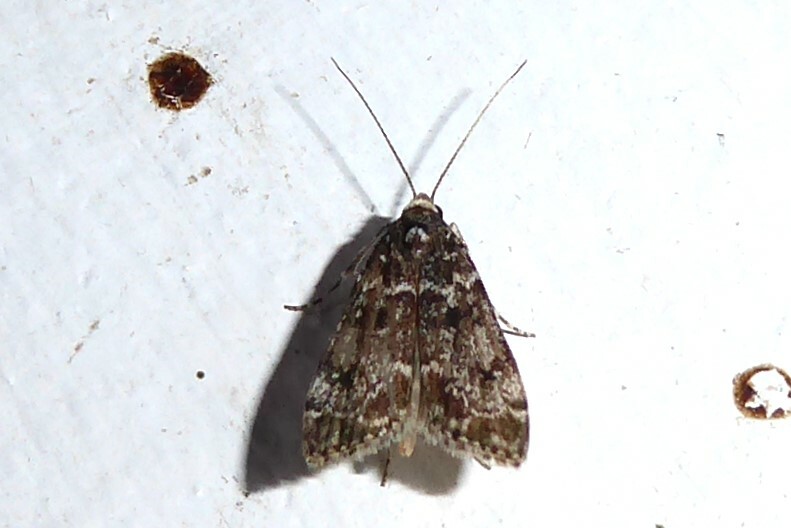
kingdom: Animalia
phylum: Arthropoda
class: Insecta
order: Lepidoptera
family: Crambidae
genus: Eudonia
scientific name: Eudonia philerga
